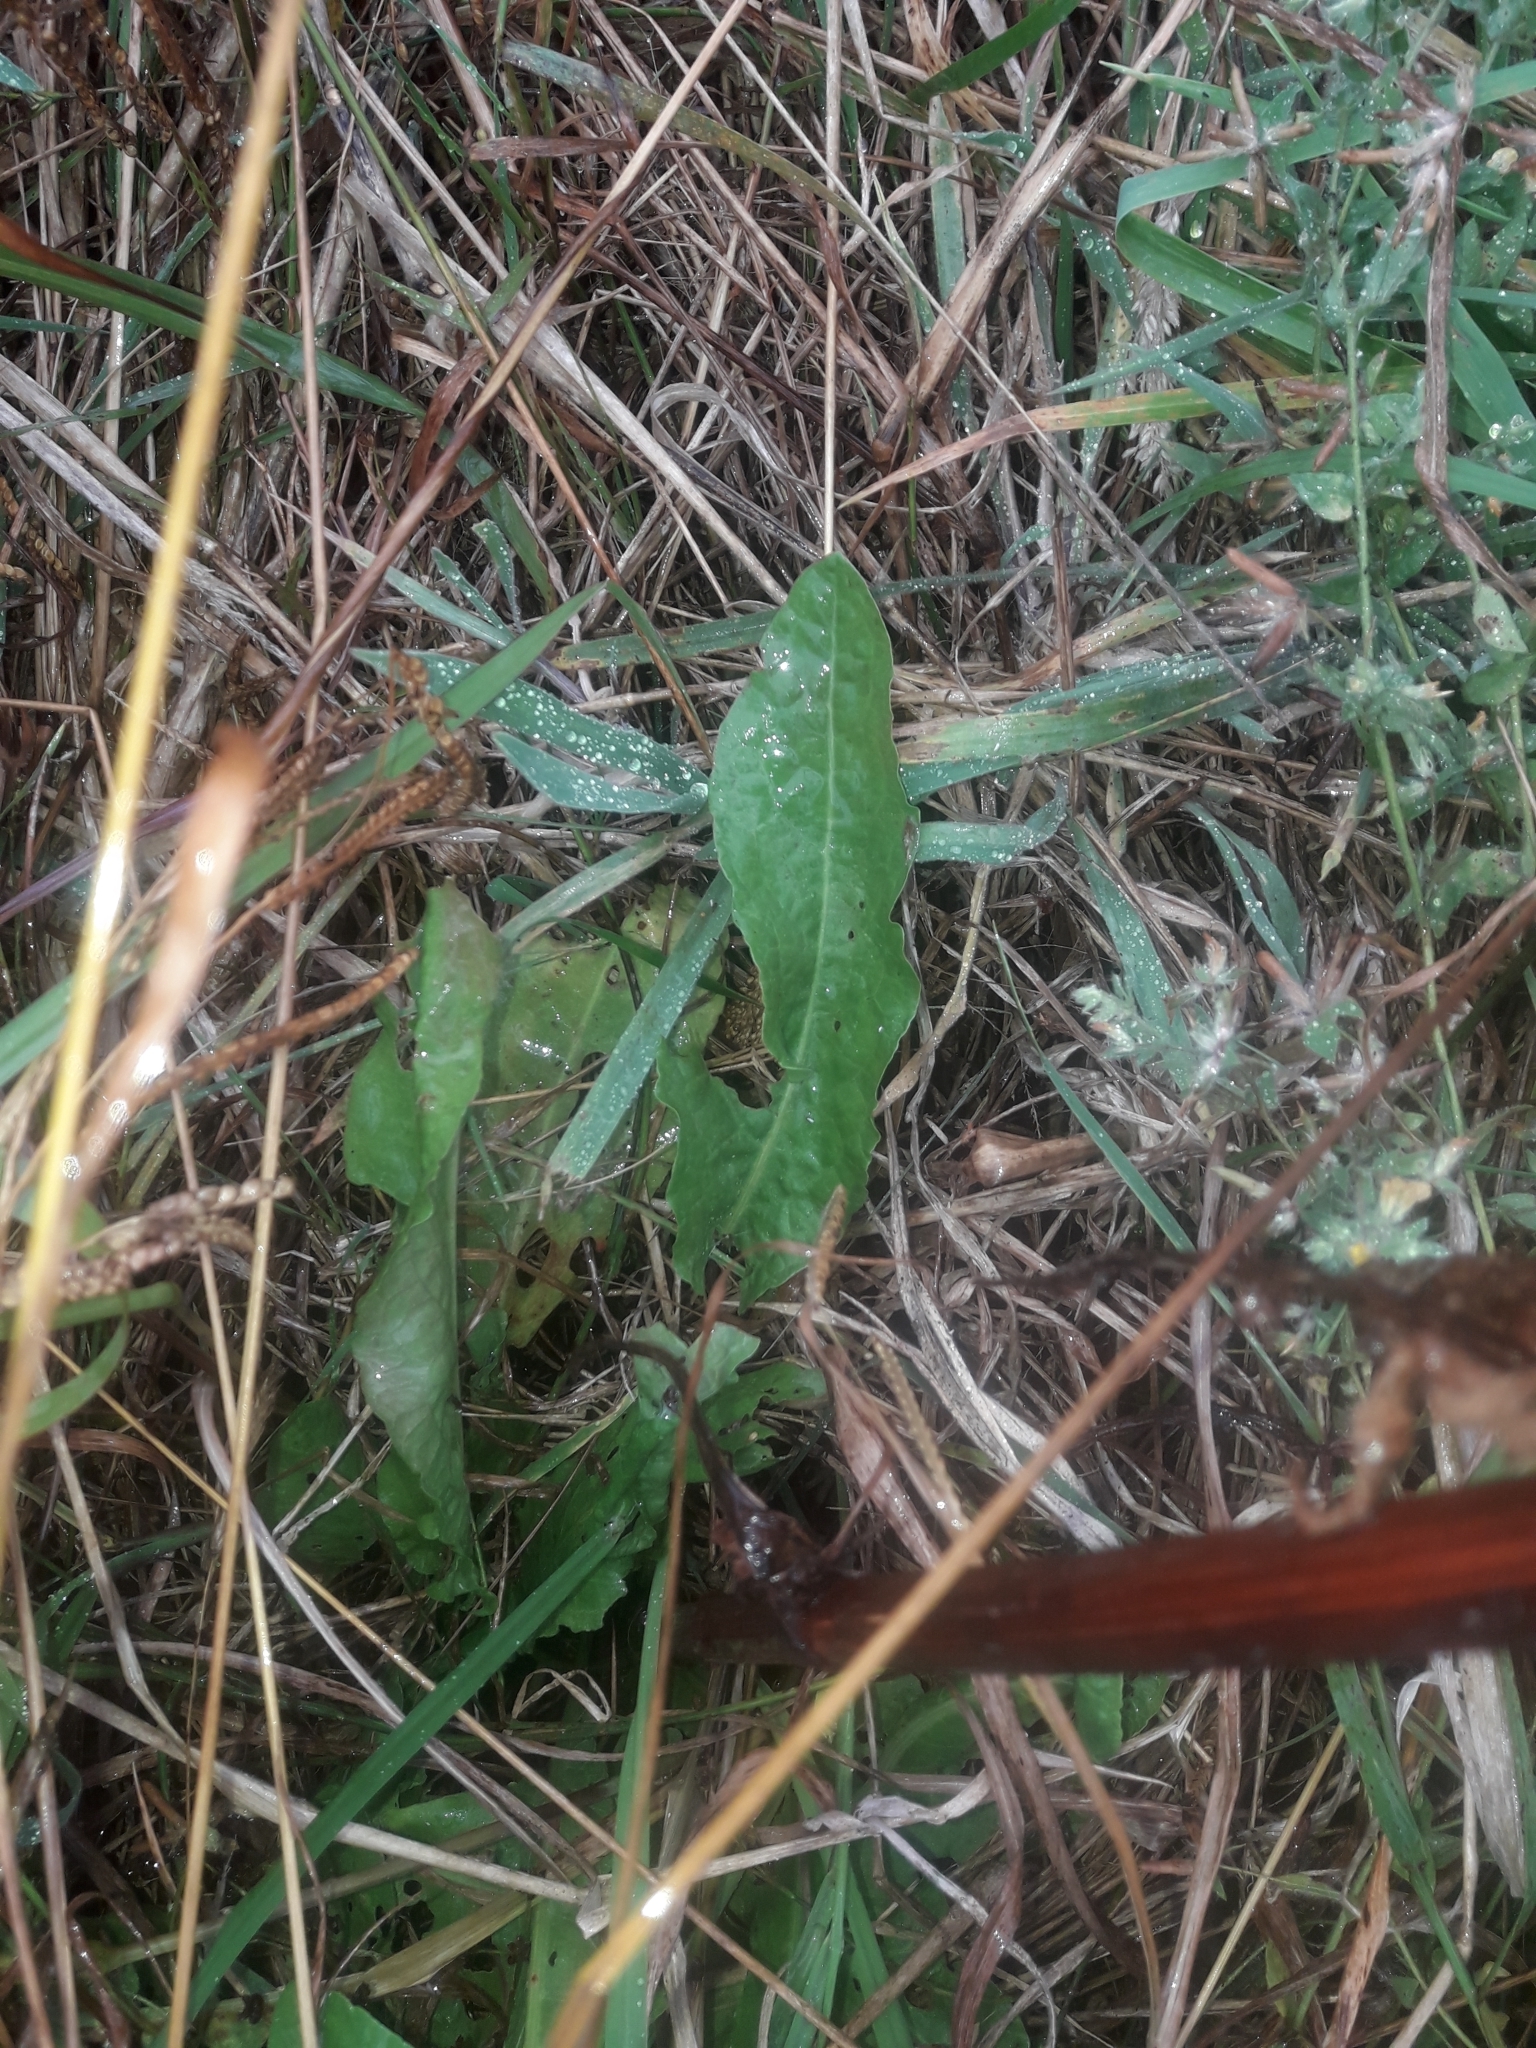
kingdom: Plantae
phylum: Tracheophyta
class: Magnoliopsida
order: Caryophyllales
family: Polygonaceae
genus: Rumex
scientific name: Rumex crispus
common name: Curled dock
